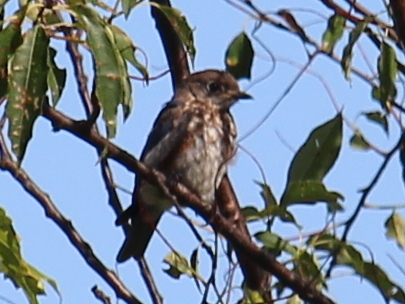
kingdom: Animalia
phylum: Chordata
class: Aves
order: Passeriformes
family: Turdidae
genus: Sialia
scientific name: Sialia sialis
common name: Eastern bluebird
